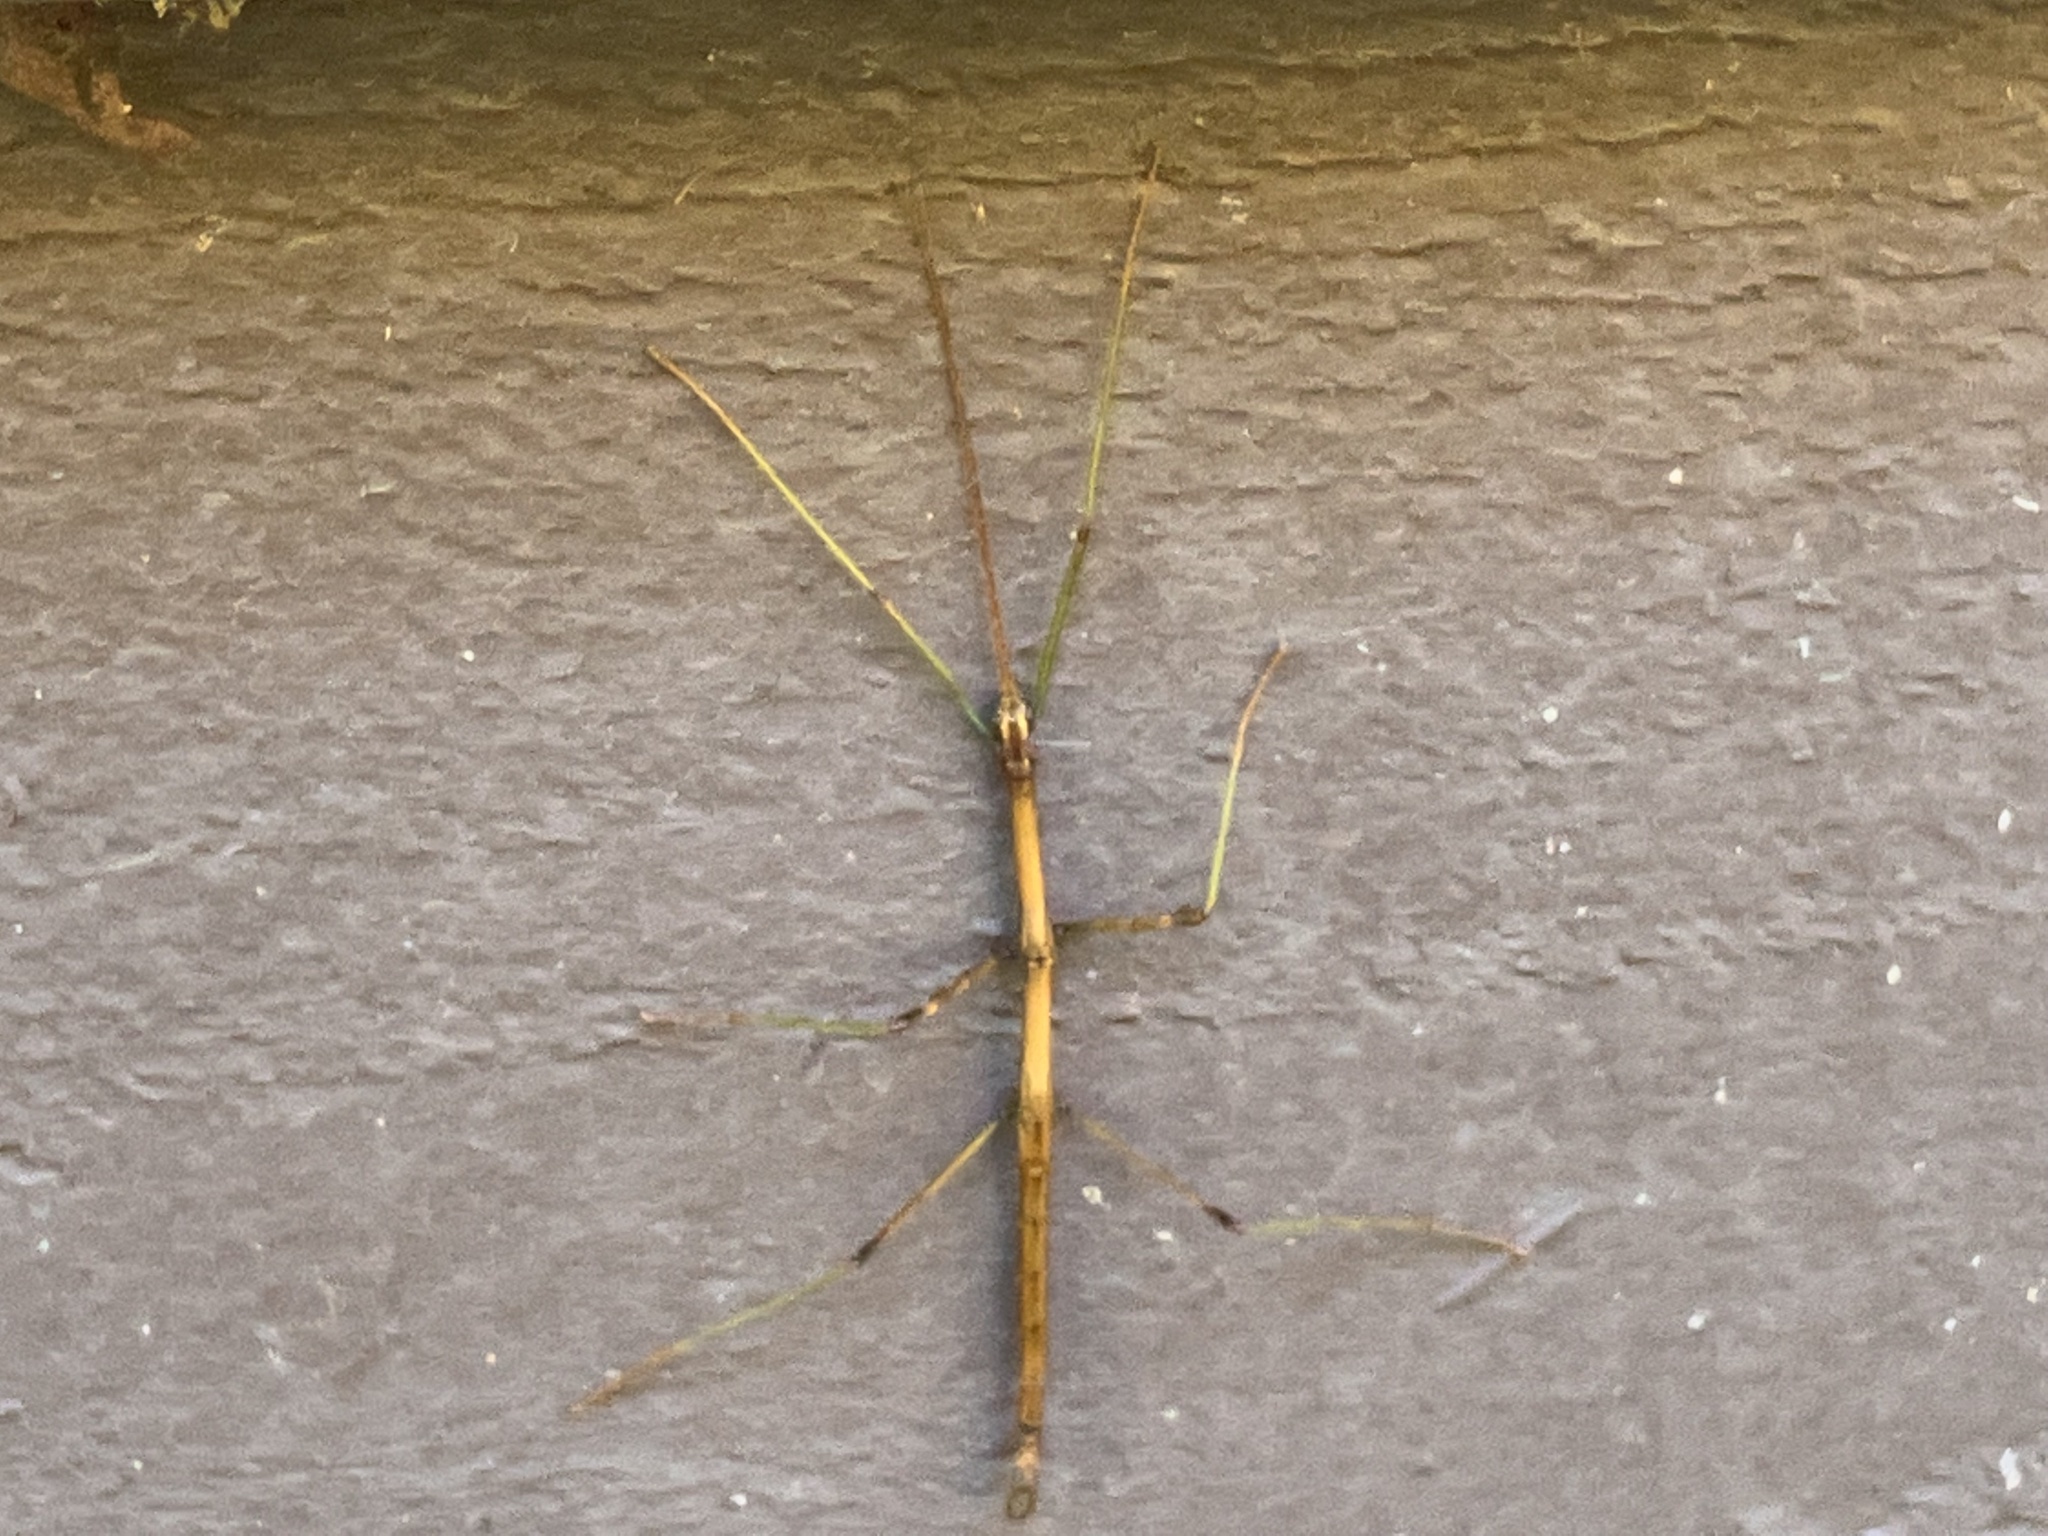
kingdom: Animalia
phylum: Arthropoda
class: Insecta
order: Phasmida
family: Diapheromeridae
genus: Diapheromera
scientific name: Diapheromera femorata
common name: Common american walkingstick
